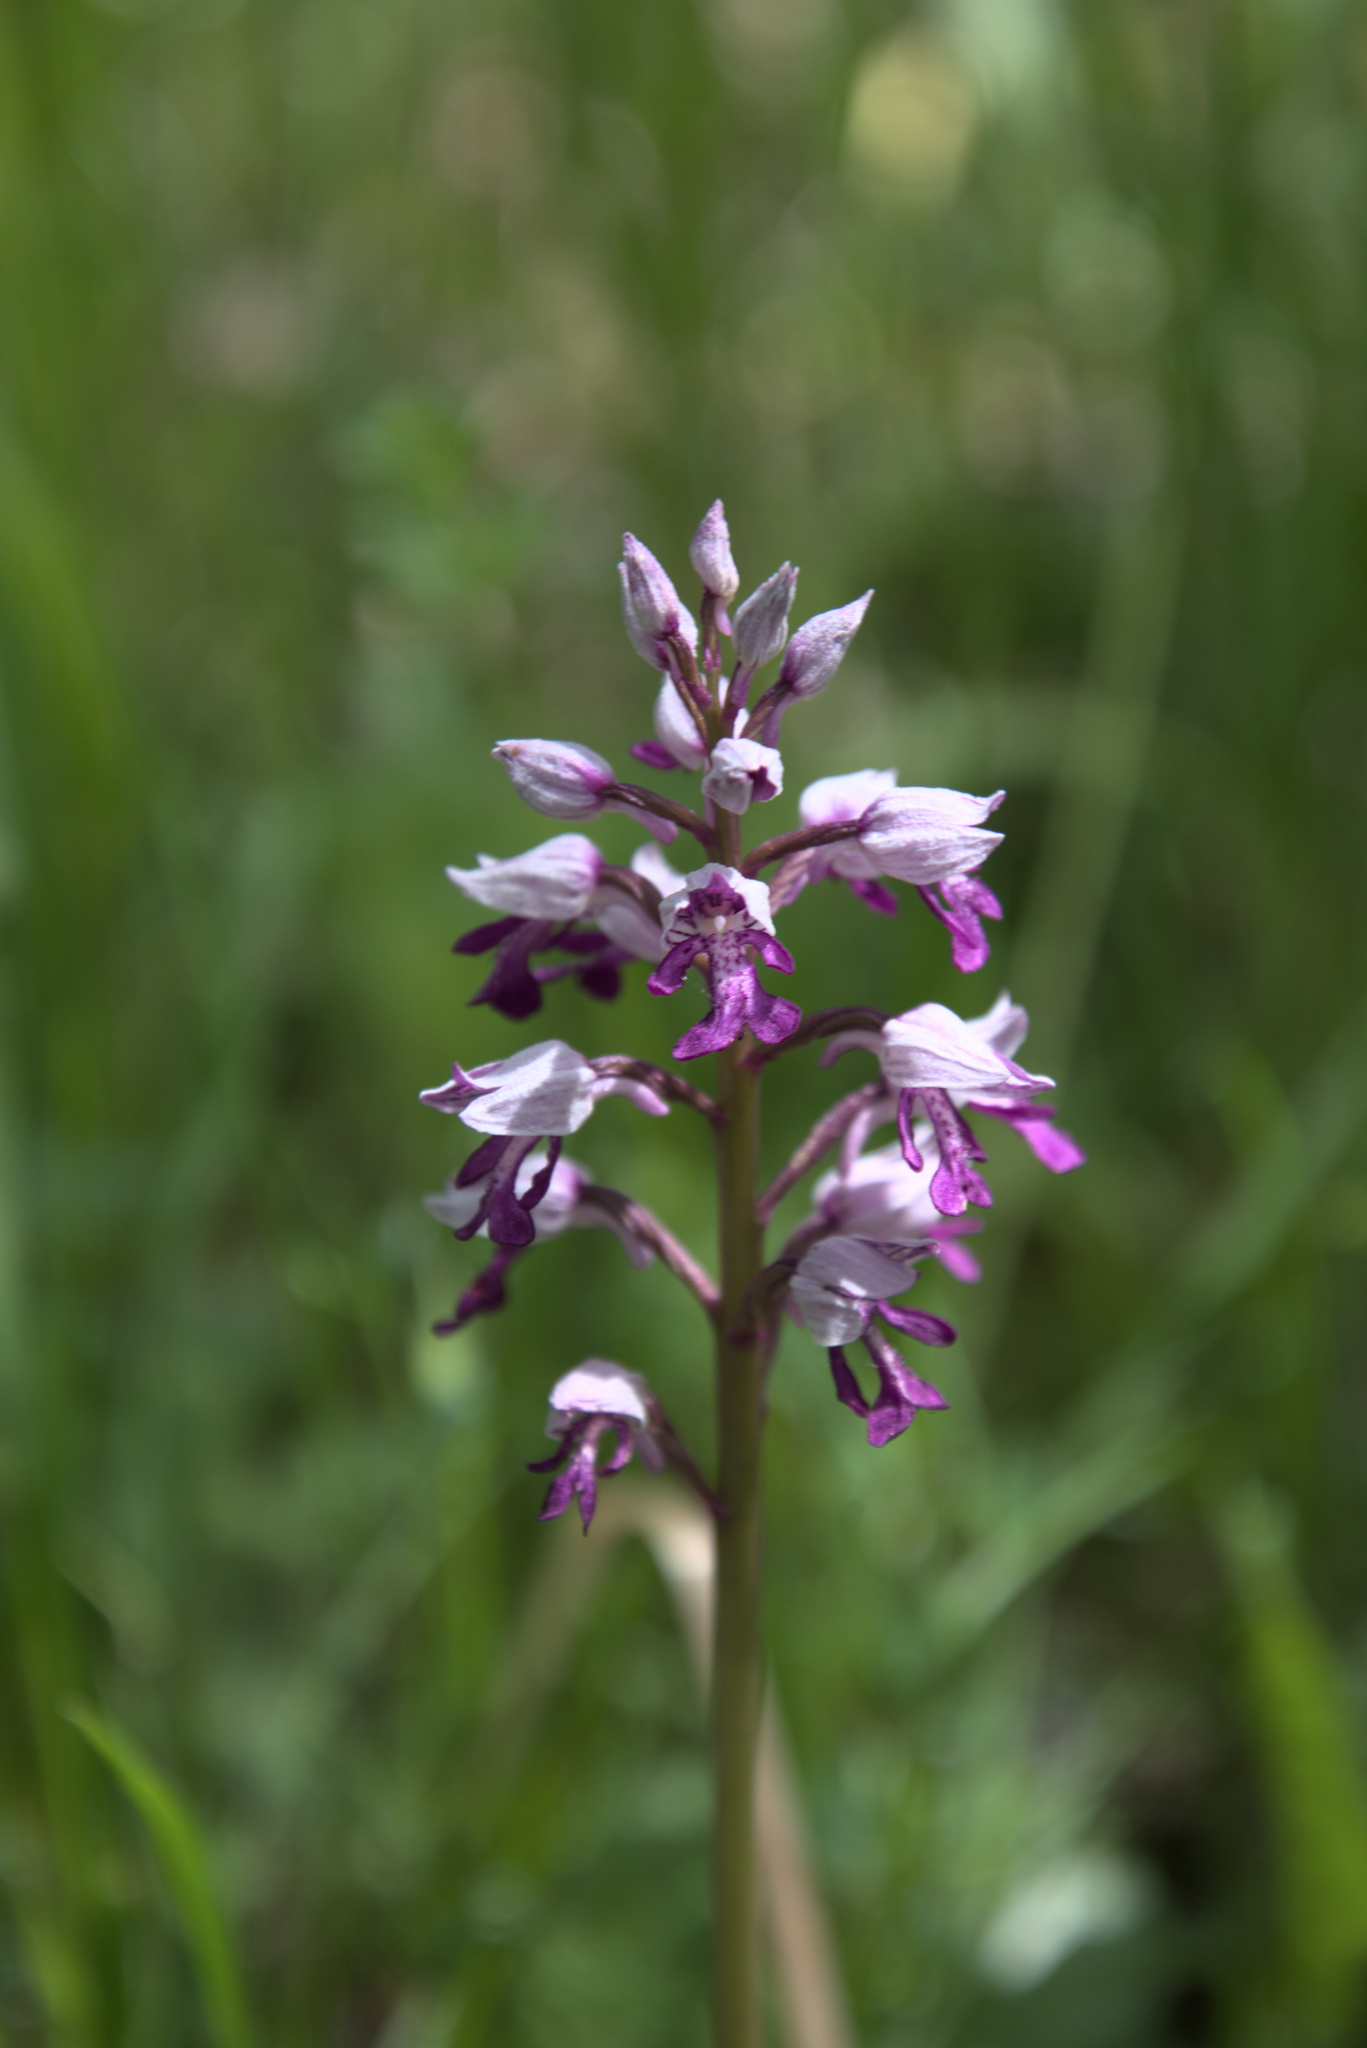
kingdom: Plantae
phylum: Tracheophyta
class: Liliopsida
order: Asparagales
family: Orchidaceae
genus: Orchis
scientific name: Orchis militaris
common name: Military orchid
